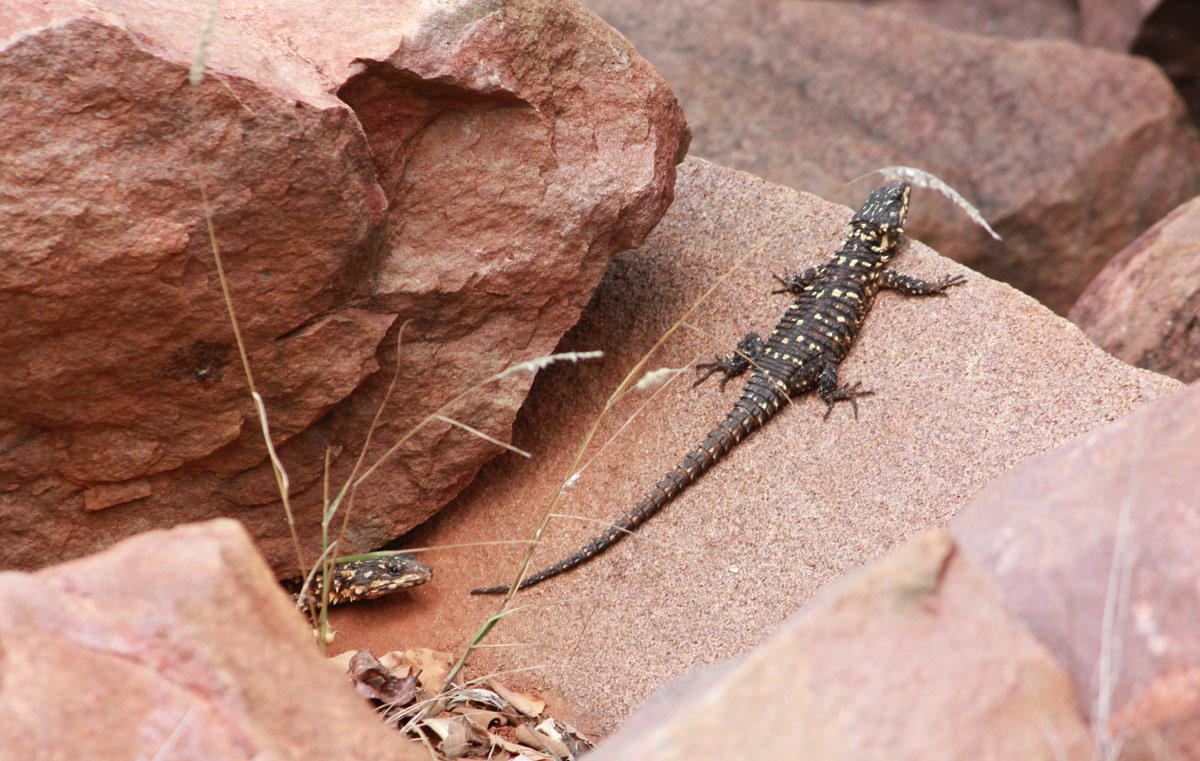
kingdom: Animalia
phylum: Chordata
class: Squamata
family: Cordylidae
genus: Smaug
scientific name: Smaug depressus
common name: Flat dragon lizard
